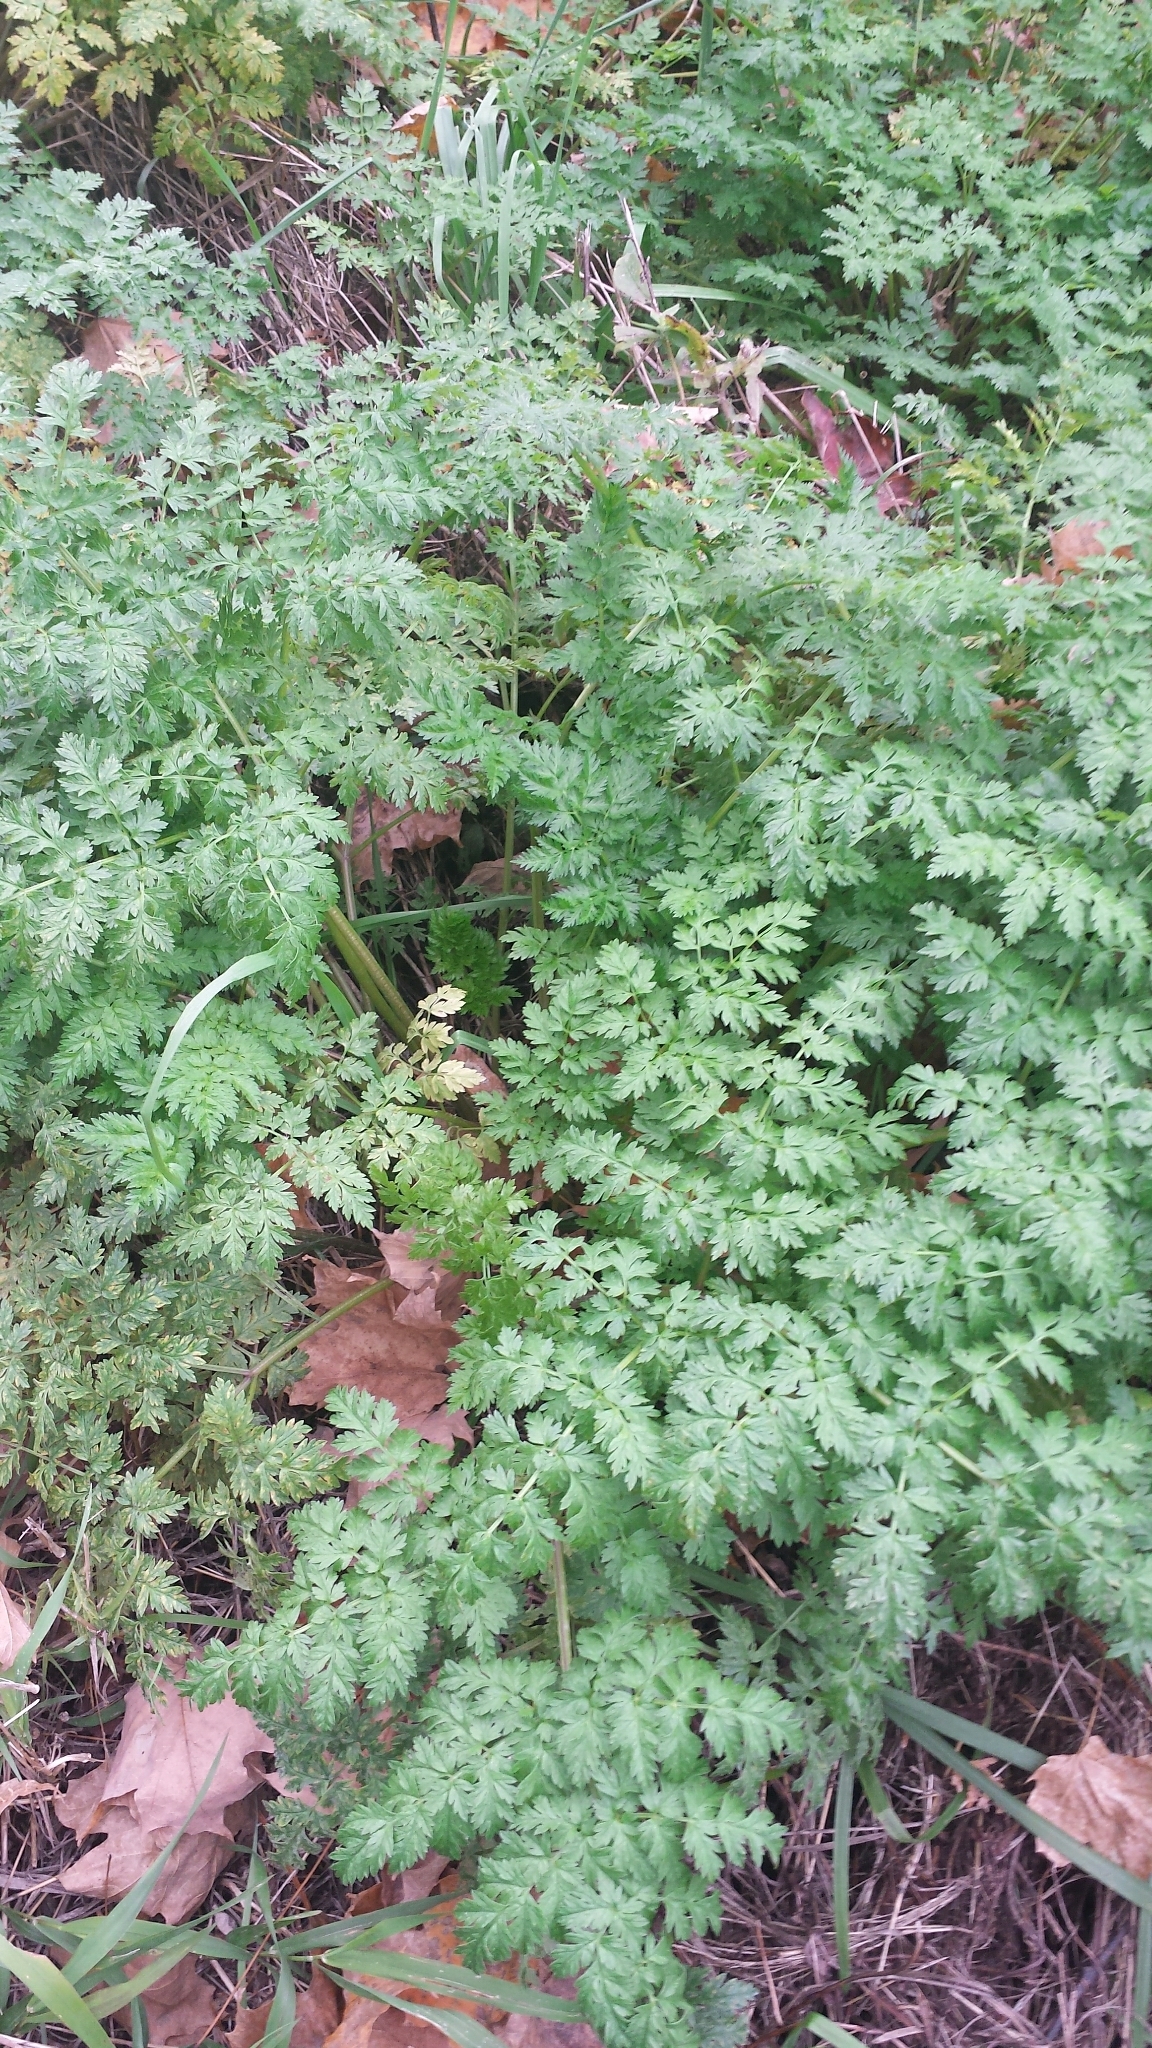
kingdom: Plantae
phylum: Tracheophyta
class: Magnoliopsida
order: Apiales
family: Apiaceae
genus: Anthriscus
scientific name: Anthriscus sylvestris
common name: Cow parsley
